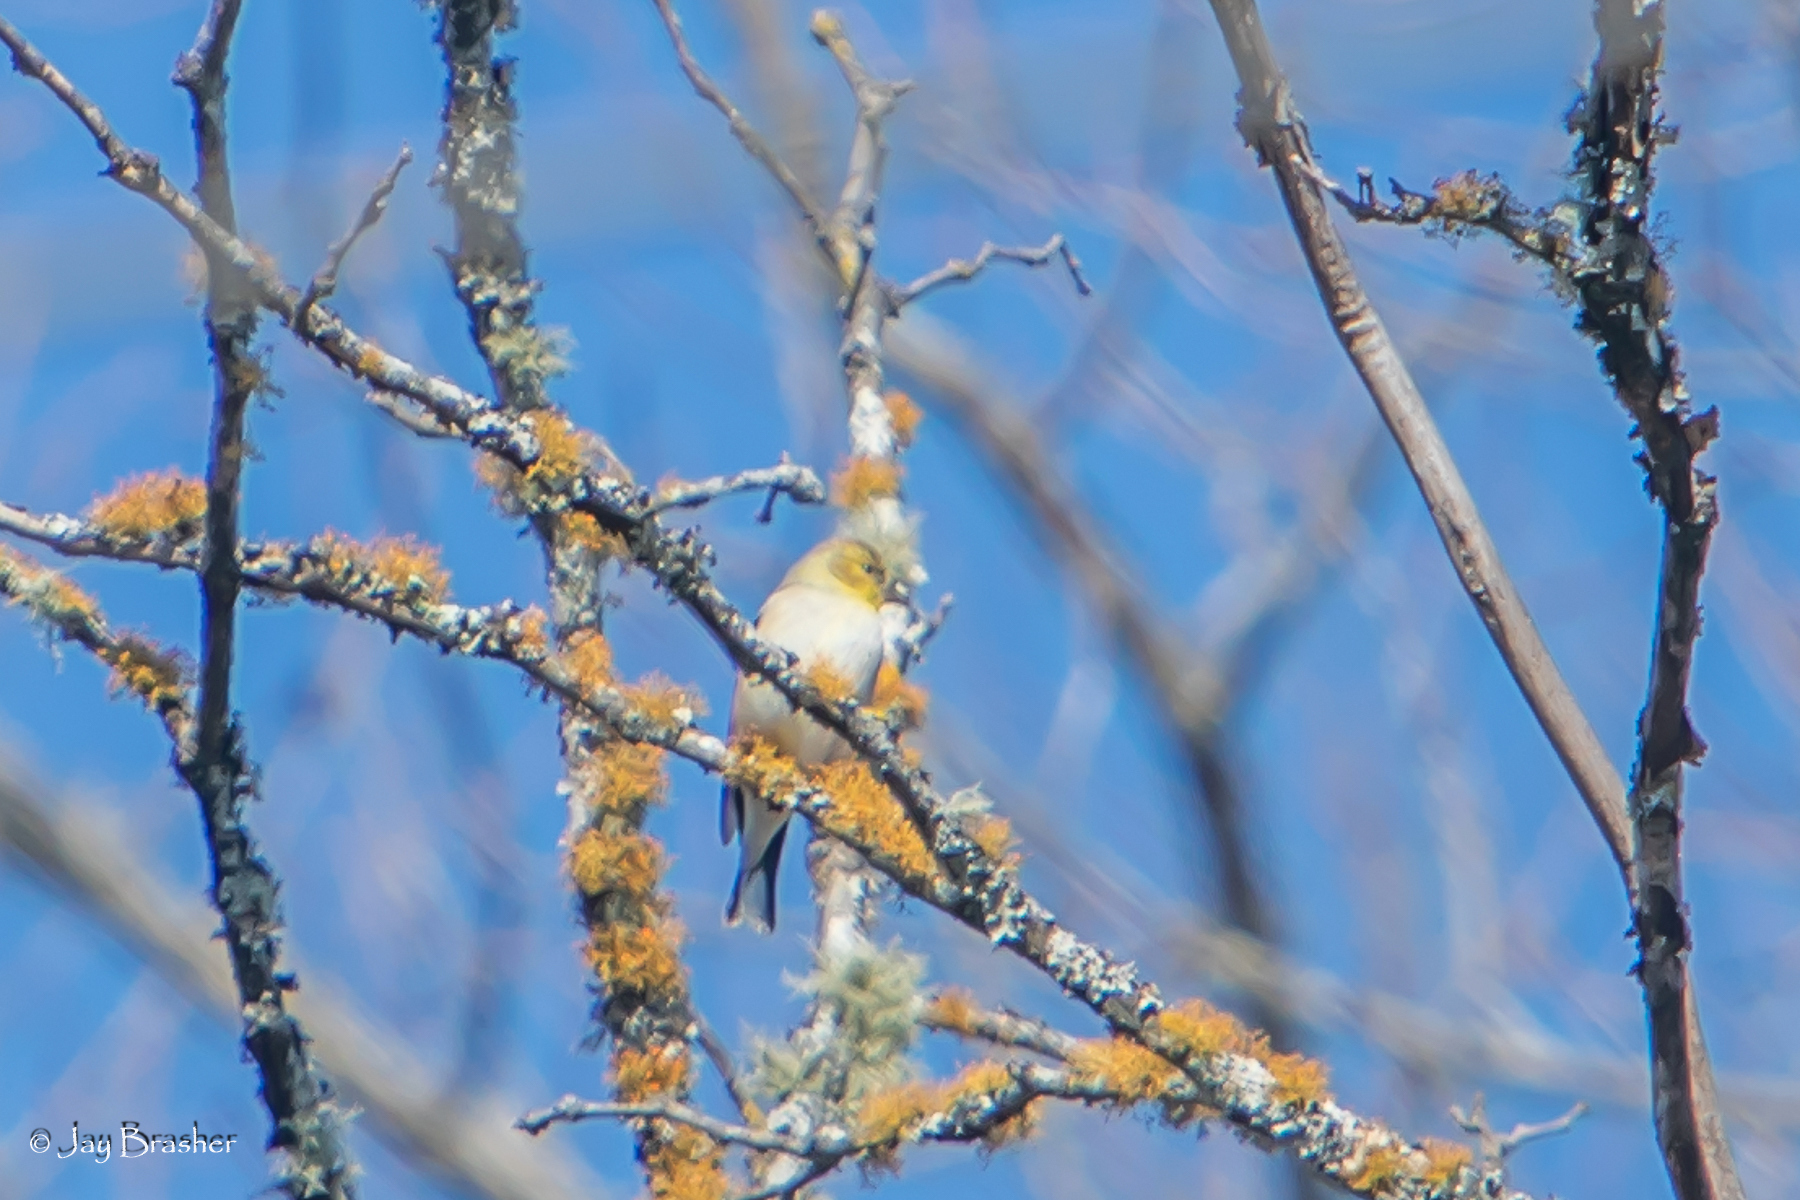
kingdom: Animalia
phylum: Chordata
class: Aves
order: Passeriformes
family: Fringillidae
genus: Spinus
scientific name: Spinus tristis
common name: American goldfinch
